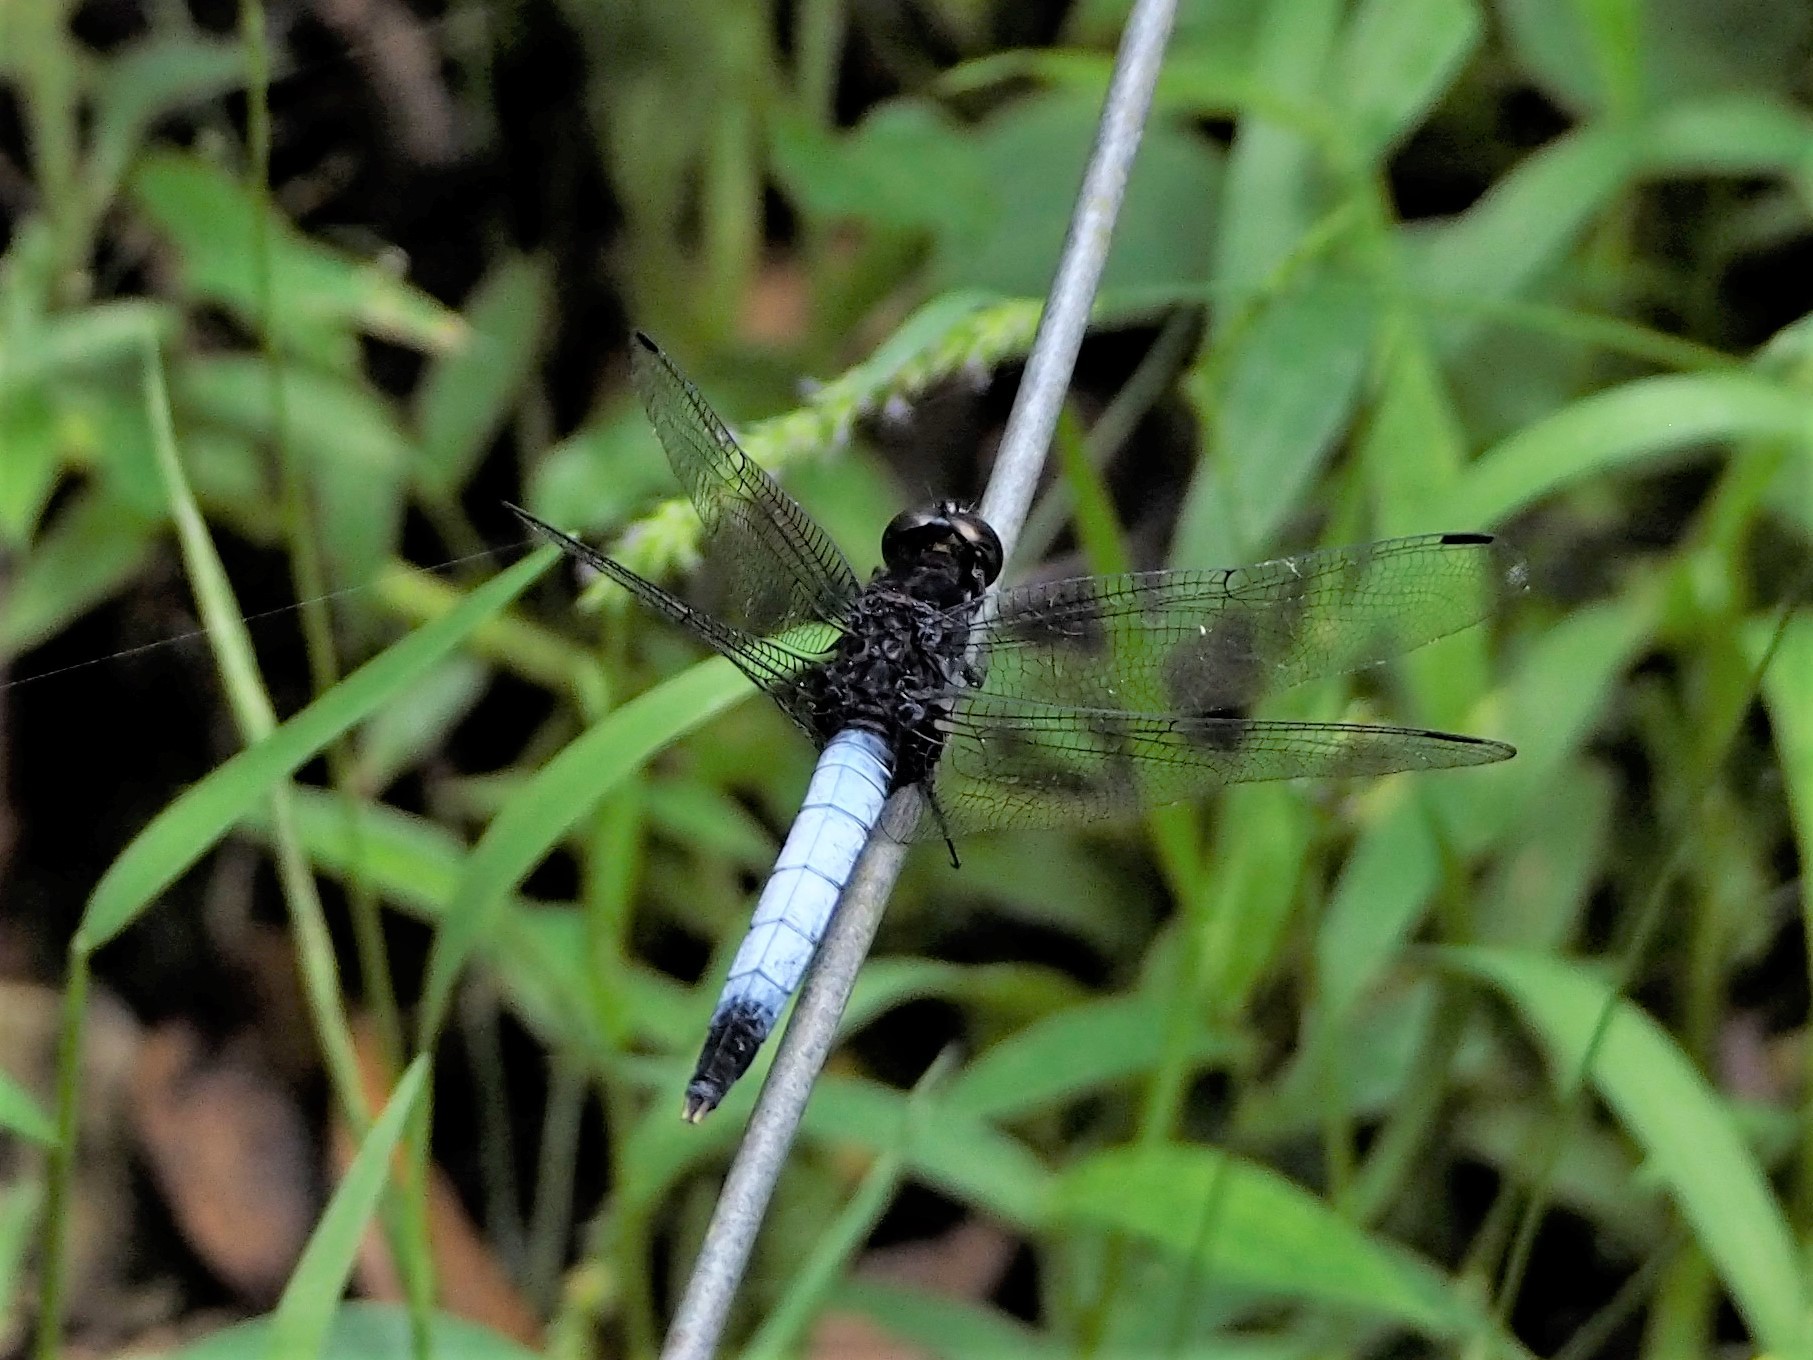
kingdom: Animalia
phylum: Arthropoda
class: Insecta
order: Odonata
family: Libellulidae
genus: Orthetrum
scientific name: Orthetrum triangulare
